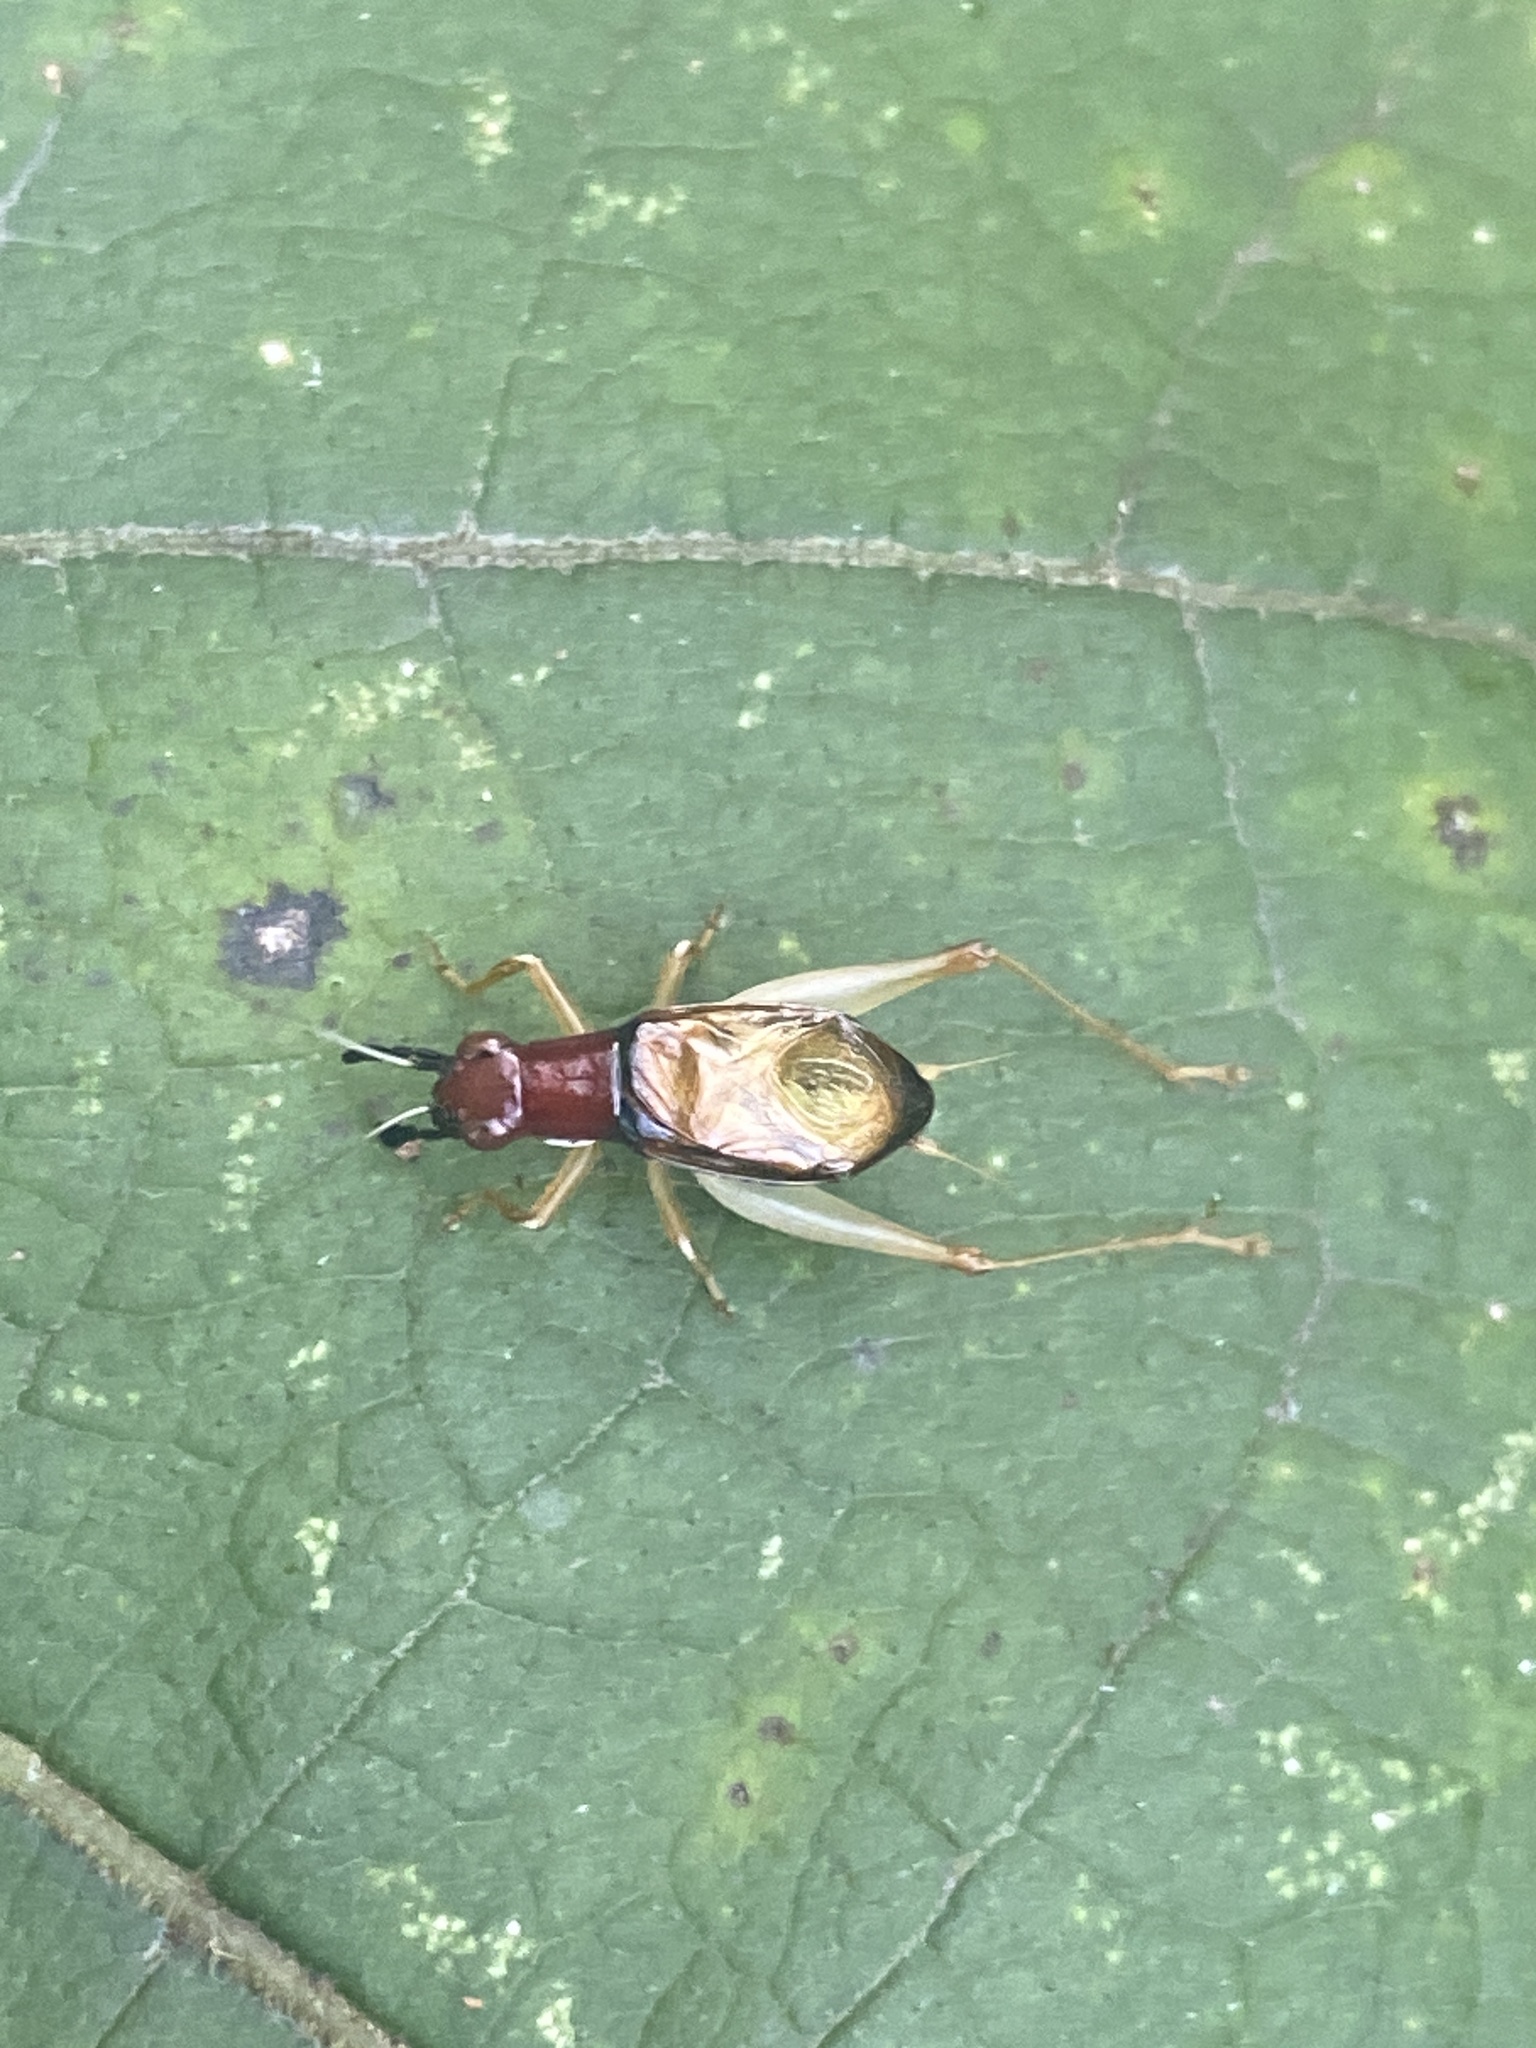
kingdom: Animalia
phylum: Arthropoda
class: Insecta
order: Orthoptera
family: Trigonidiidae
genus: Phyllopalpus
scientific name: Phyllopalpus pulchellus
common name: Handsome trig
